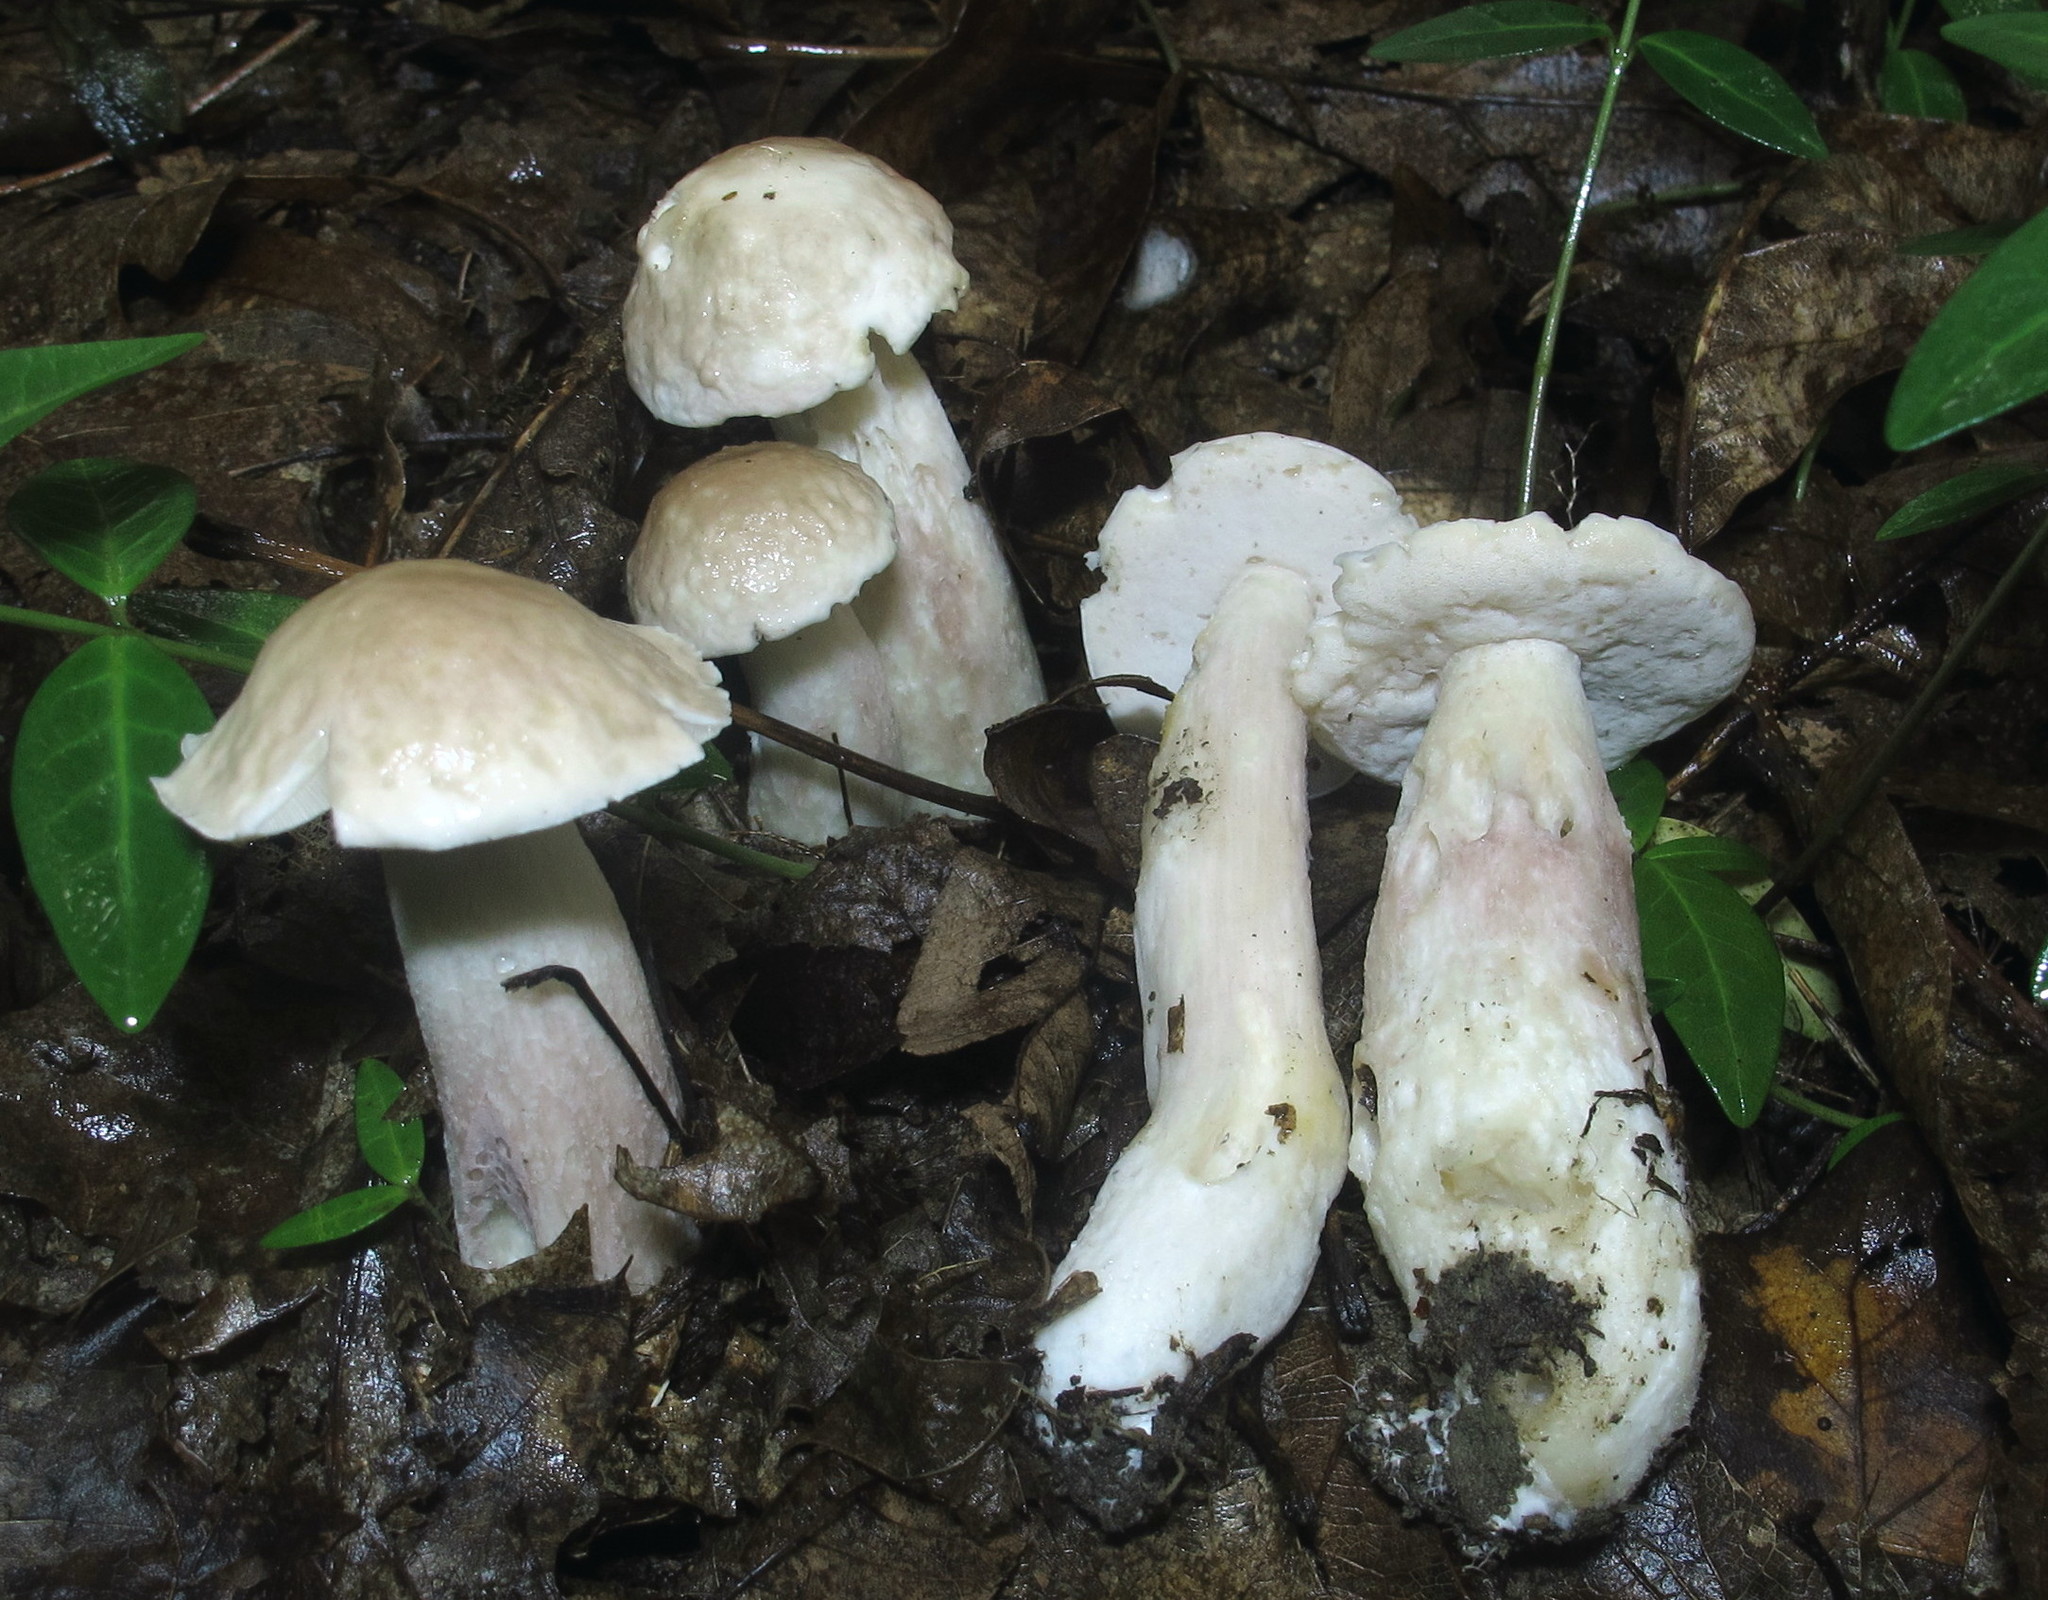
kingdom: Fungi
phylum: Basidiomycota
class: Agaricomycetes
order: Boletales
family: Boletaceae
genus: Xanthoconium
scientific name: Xanthoconium separans
